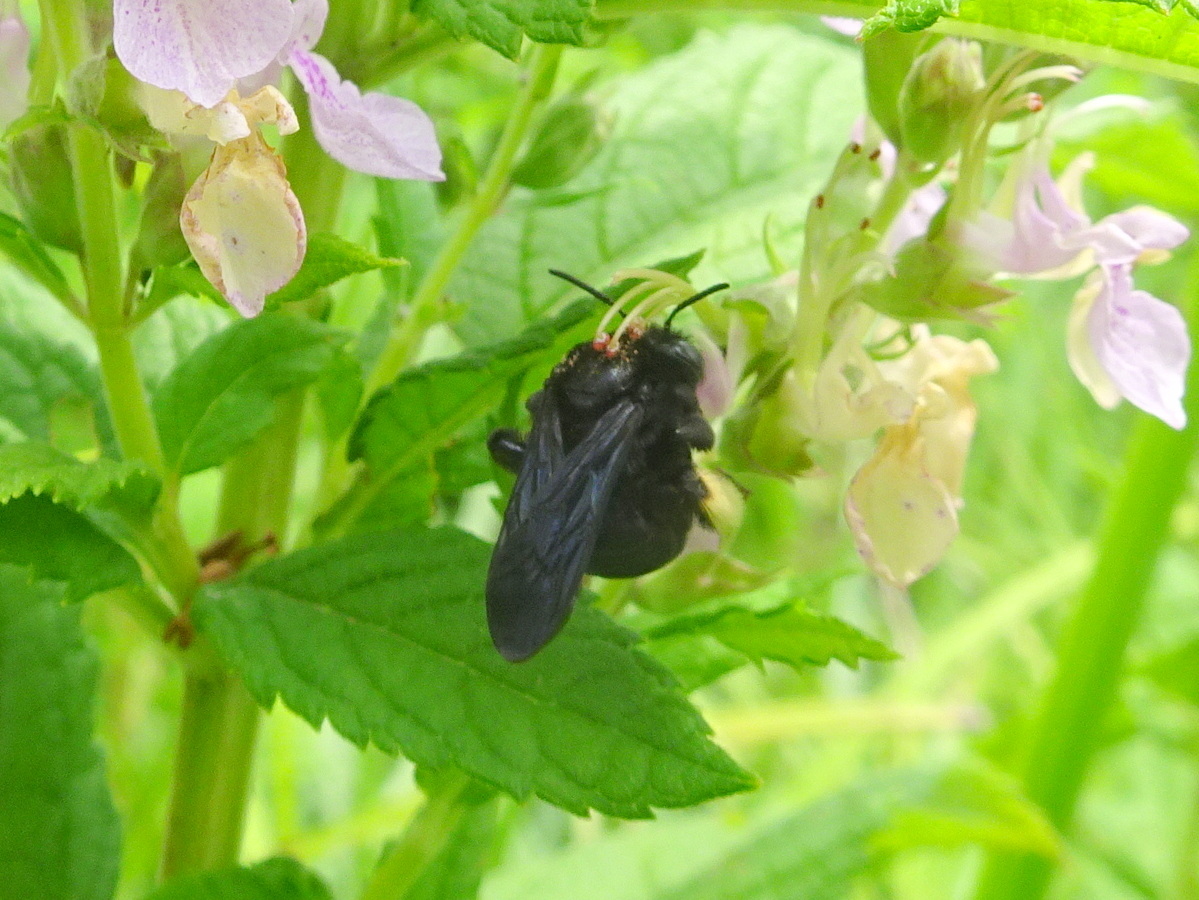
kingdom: Animalia
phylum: Arthropoda
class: Insecta
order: Hymenoptera
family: Apidae
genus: Melissodes
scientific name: Melissodes bimaculatus
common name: Two-spotted long-horned bee
